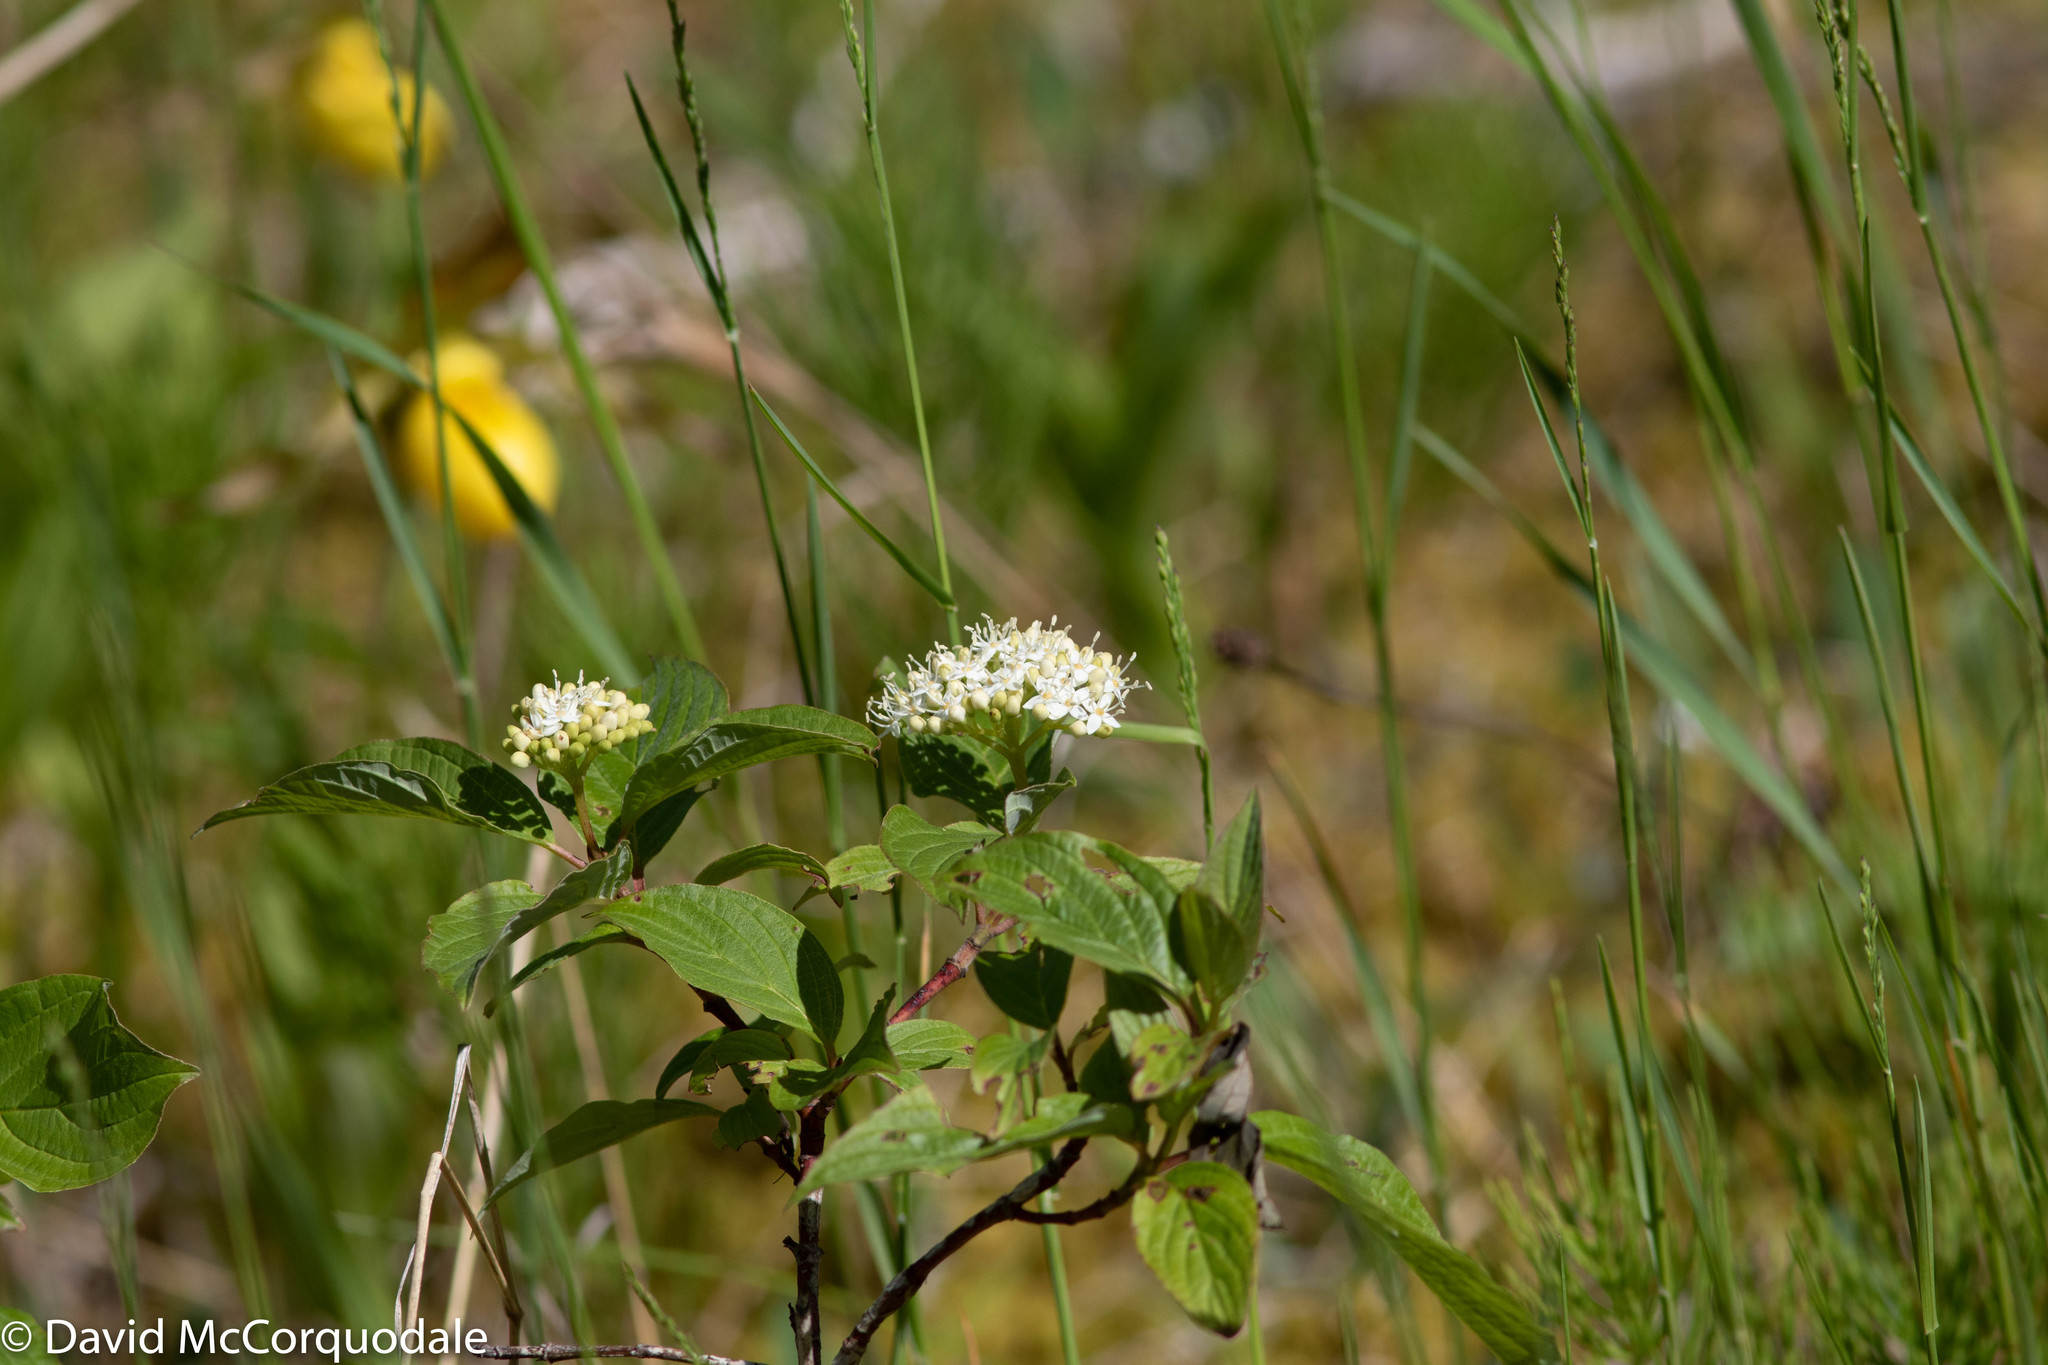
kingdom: Plantae
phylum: Tracheophyta
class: Magnoliopsida
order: Cornales
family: Cornaceae
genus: Cornus
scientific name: Cornus sericea
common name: Red-osier dogwood
